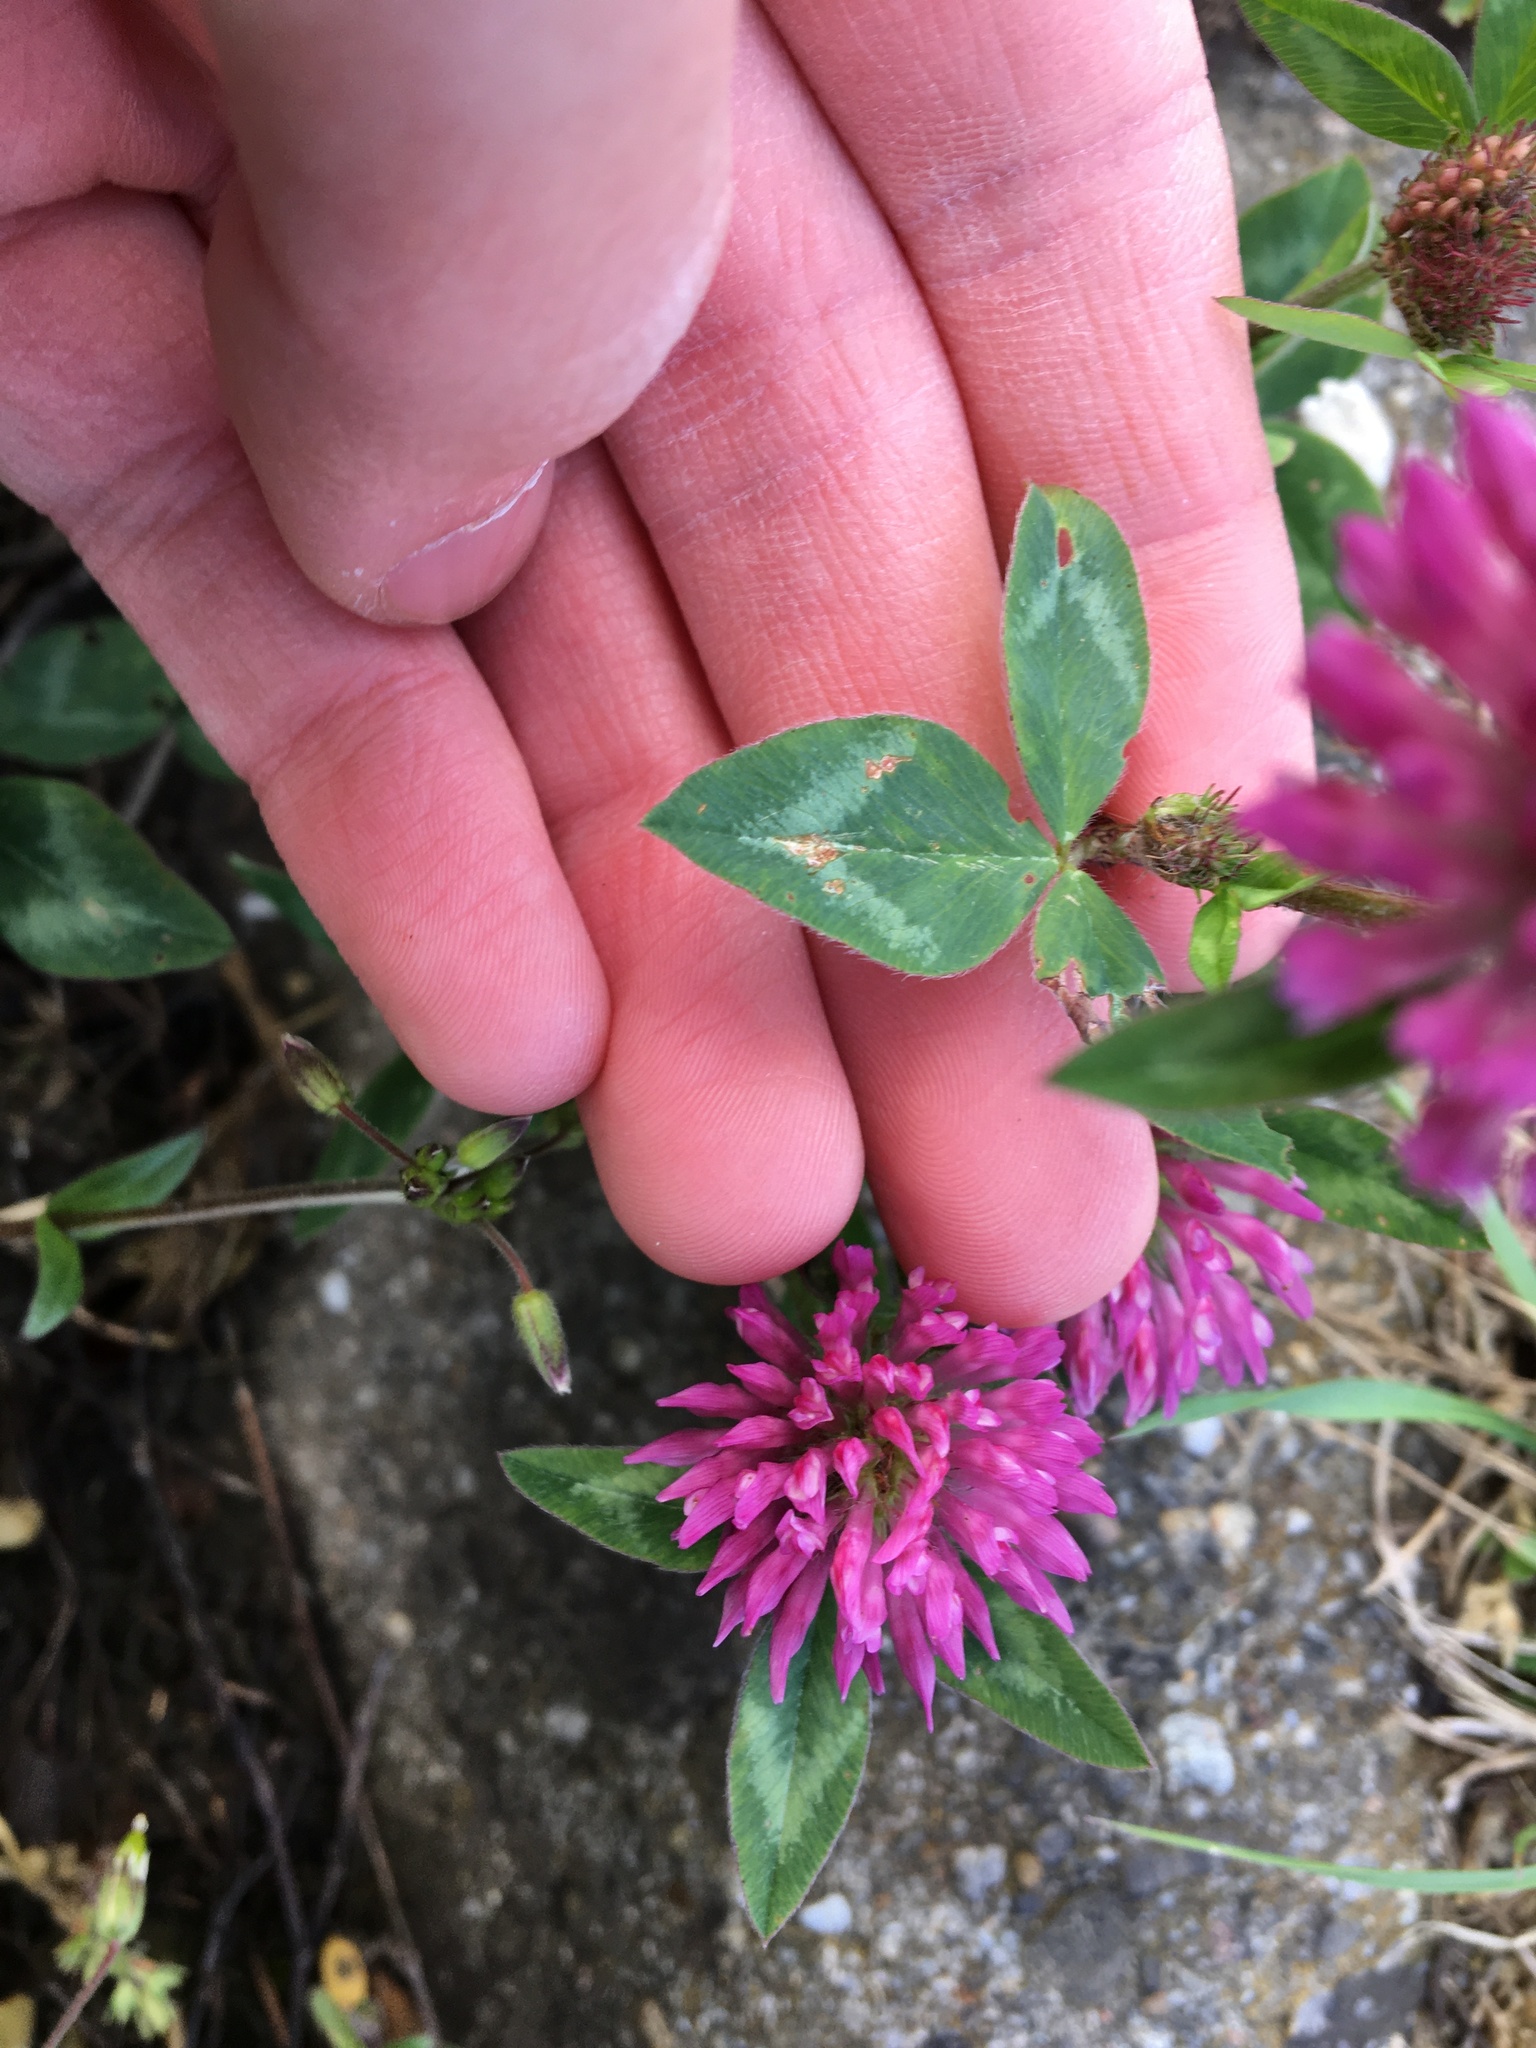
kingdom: Plantae
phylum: Tracheophyta
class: Magnoliopsida
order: Fabales
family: Fabaceae
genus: Trifolium
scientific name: Trifolium pratense
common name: Red clover
